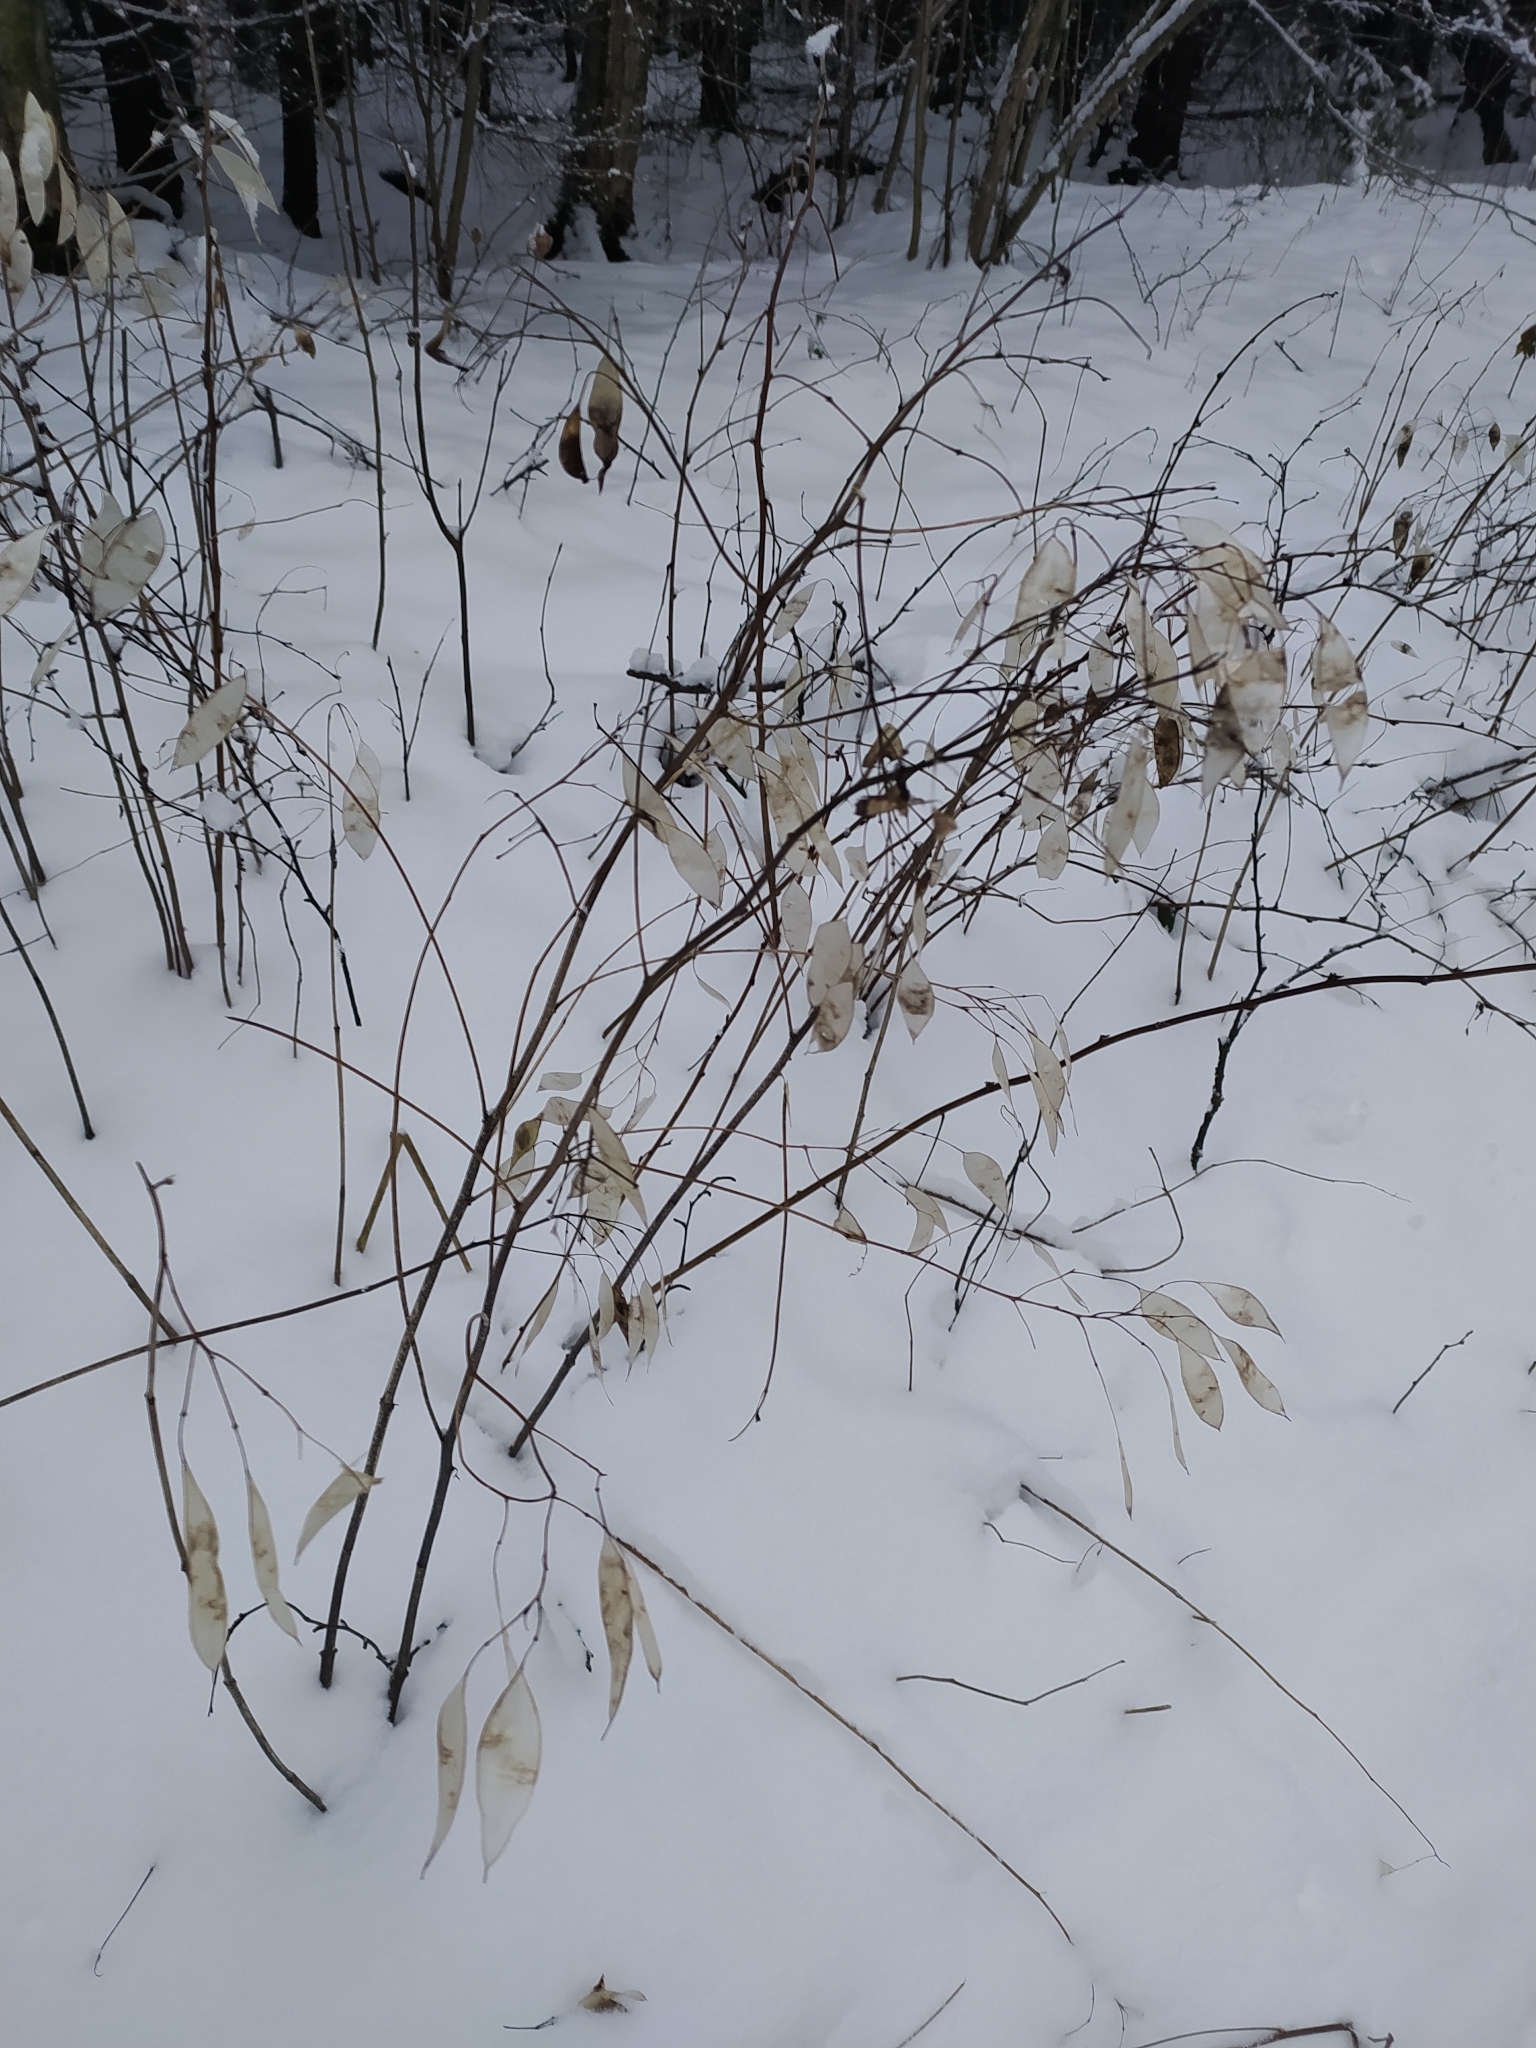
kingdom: Plantae
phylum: Tracheophyta
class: Magnoliopsida
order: Brassicales
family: Brassicaceae
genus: Lunaria
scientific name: Lunaria rediviva
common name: Perennial honesty
